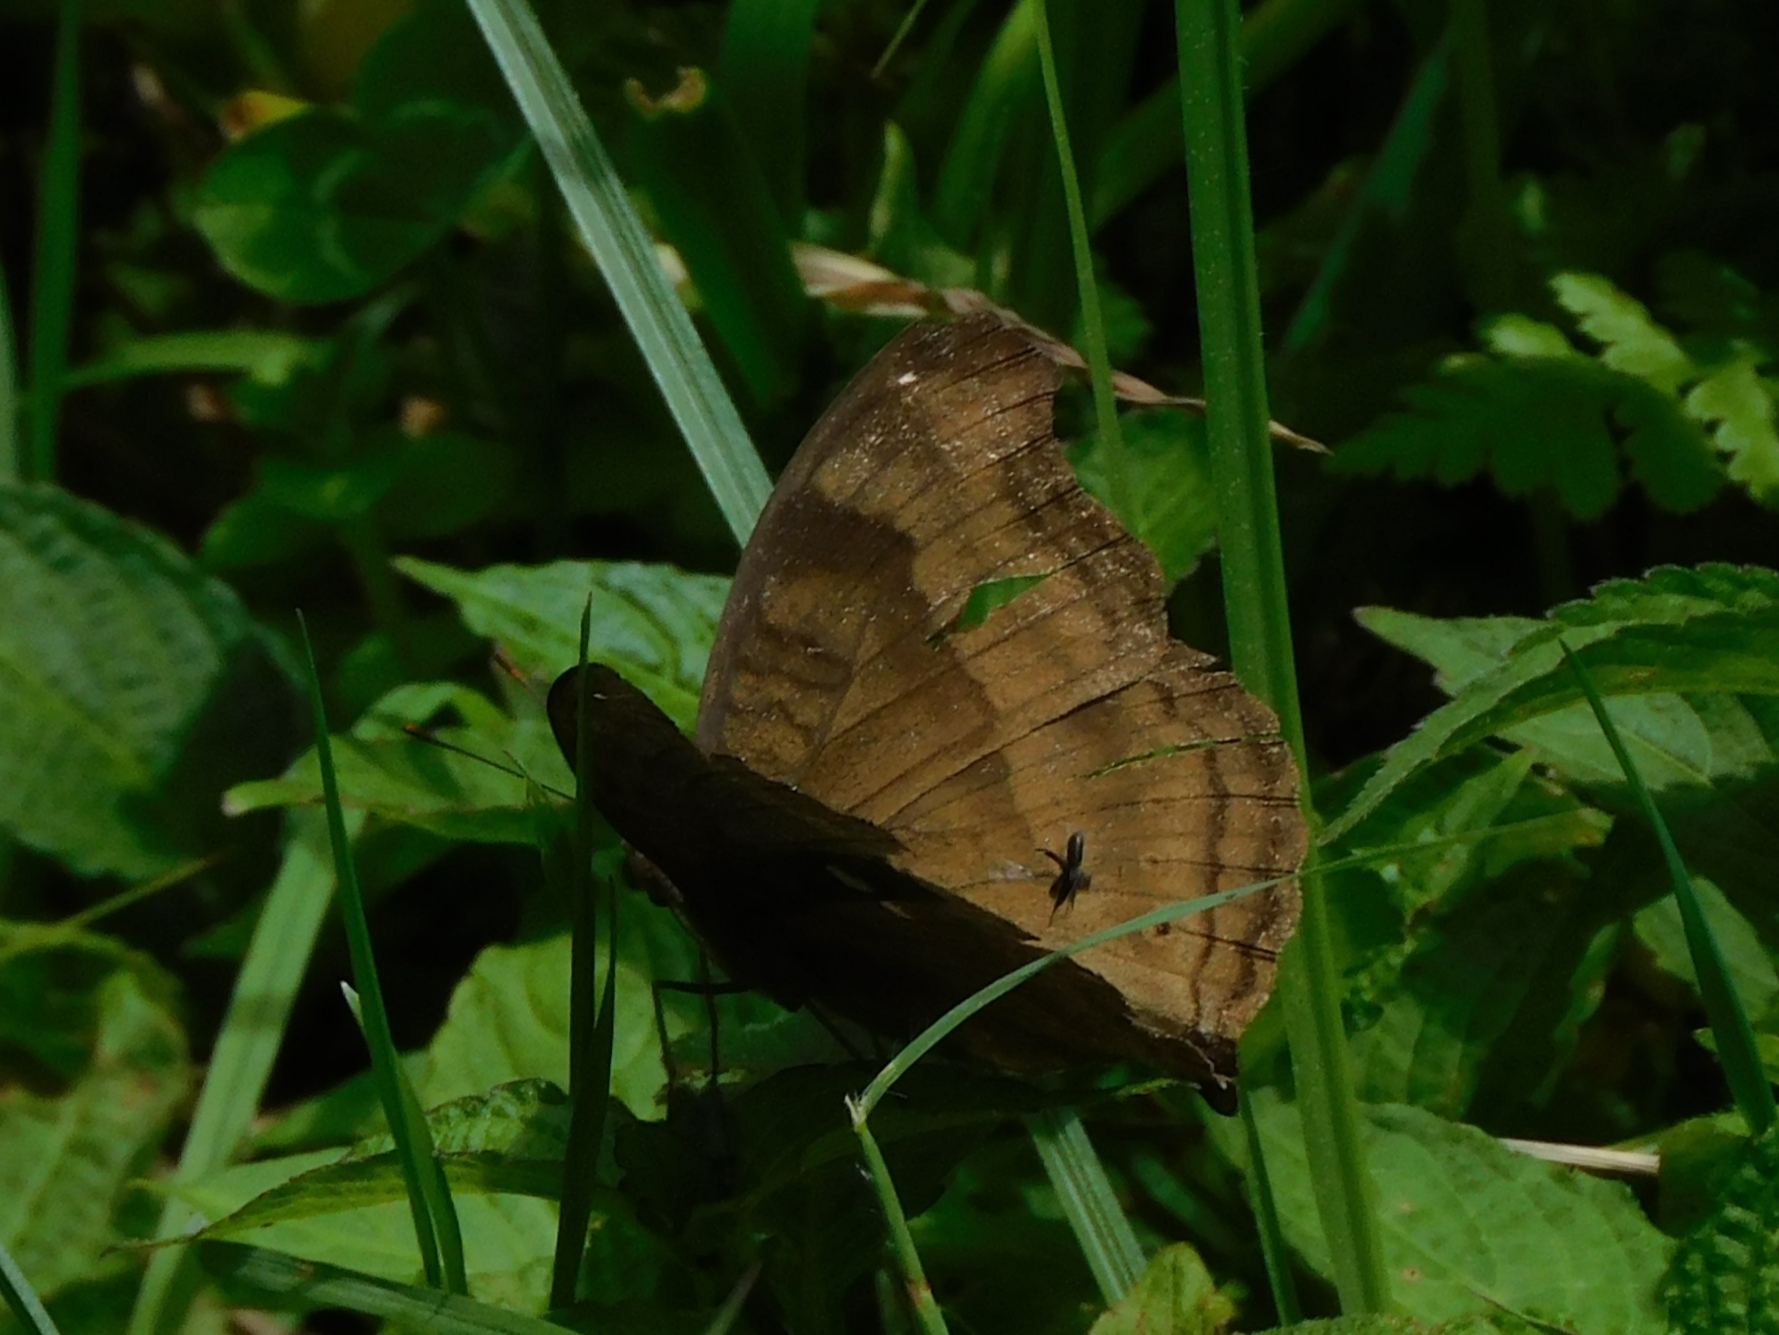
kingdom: Animalia
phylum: Arthropoda
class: Insecta
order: Lepidoptera
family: Nymphalidae
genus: Junonia
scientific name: Junonia iphita
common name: Chocolate pansy
